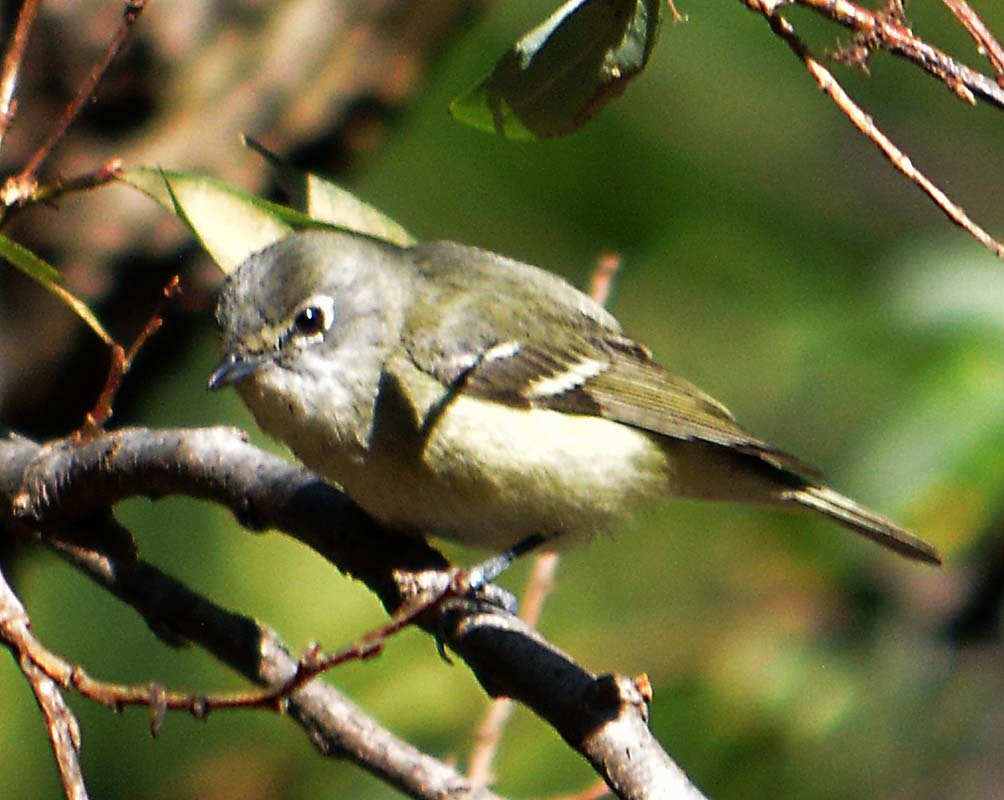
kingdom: Animalia
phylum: Chordata
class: Aves
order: Passeriformes
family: Vireonidae
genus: Vireo
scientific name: Vireo cassinii
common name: Cassin's vireo
